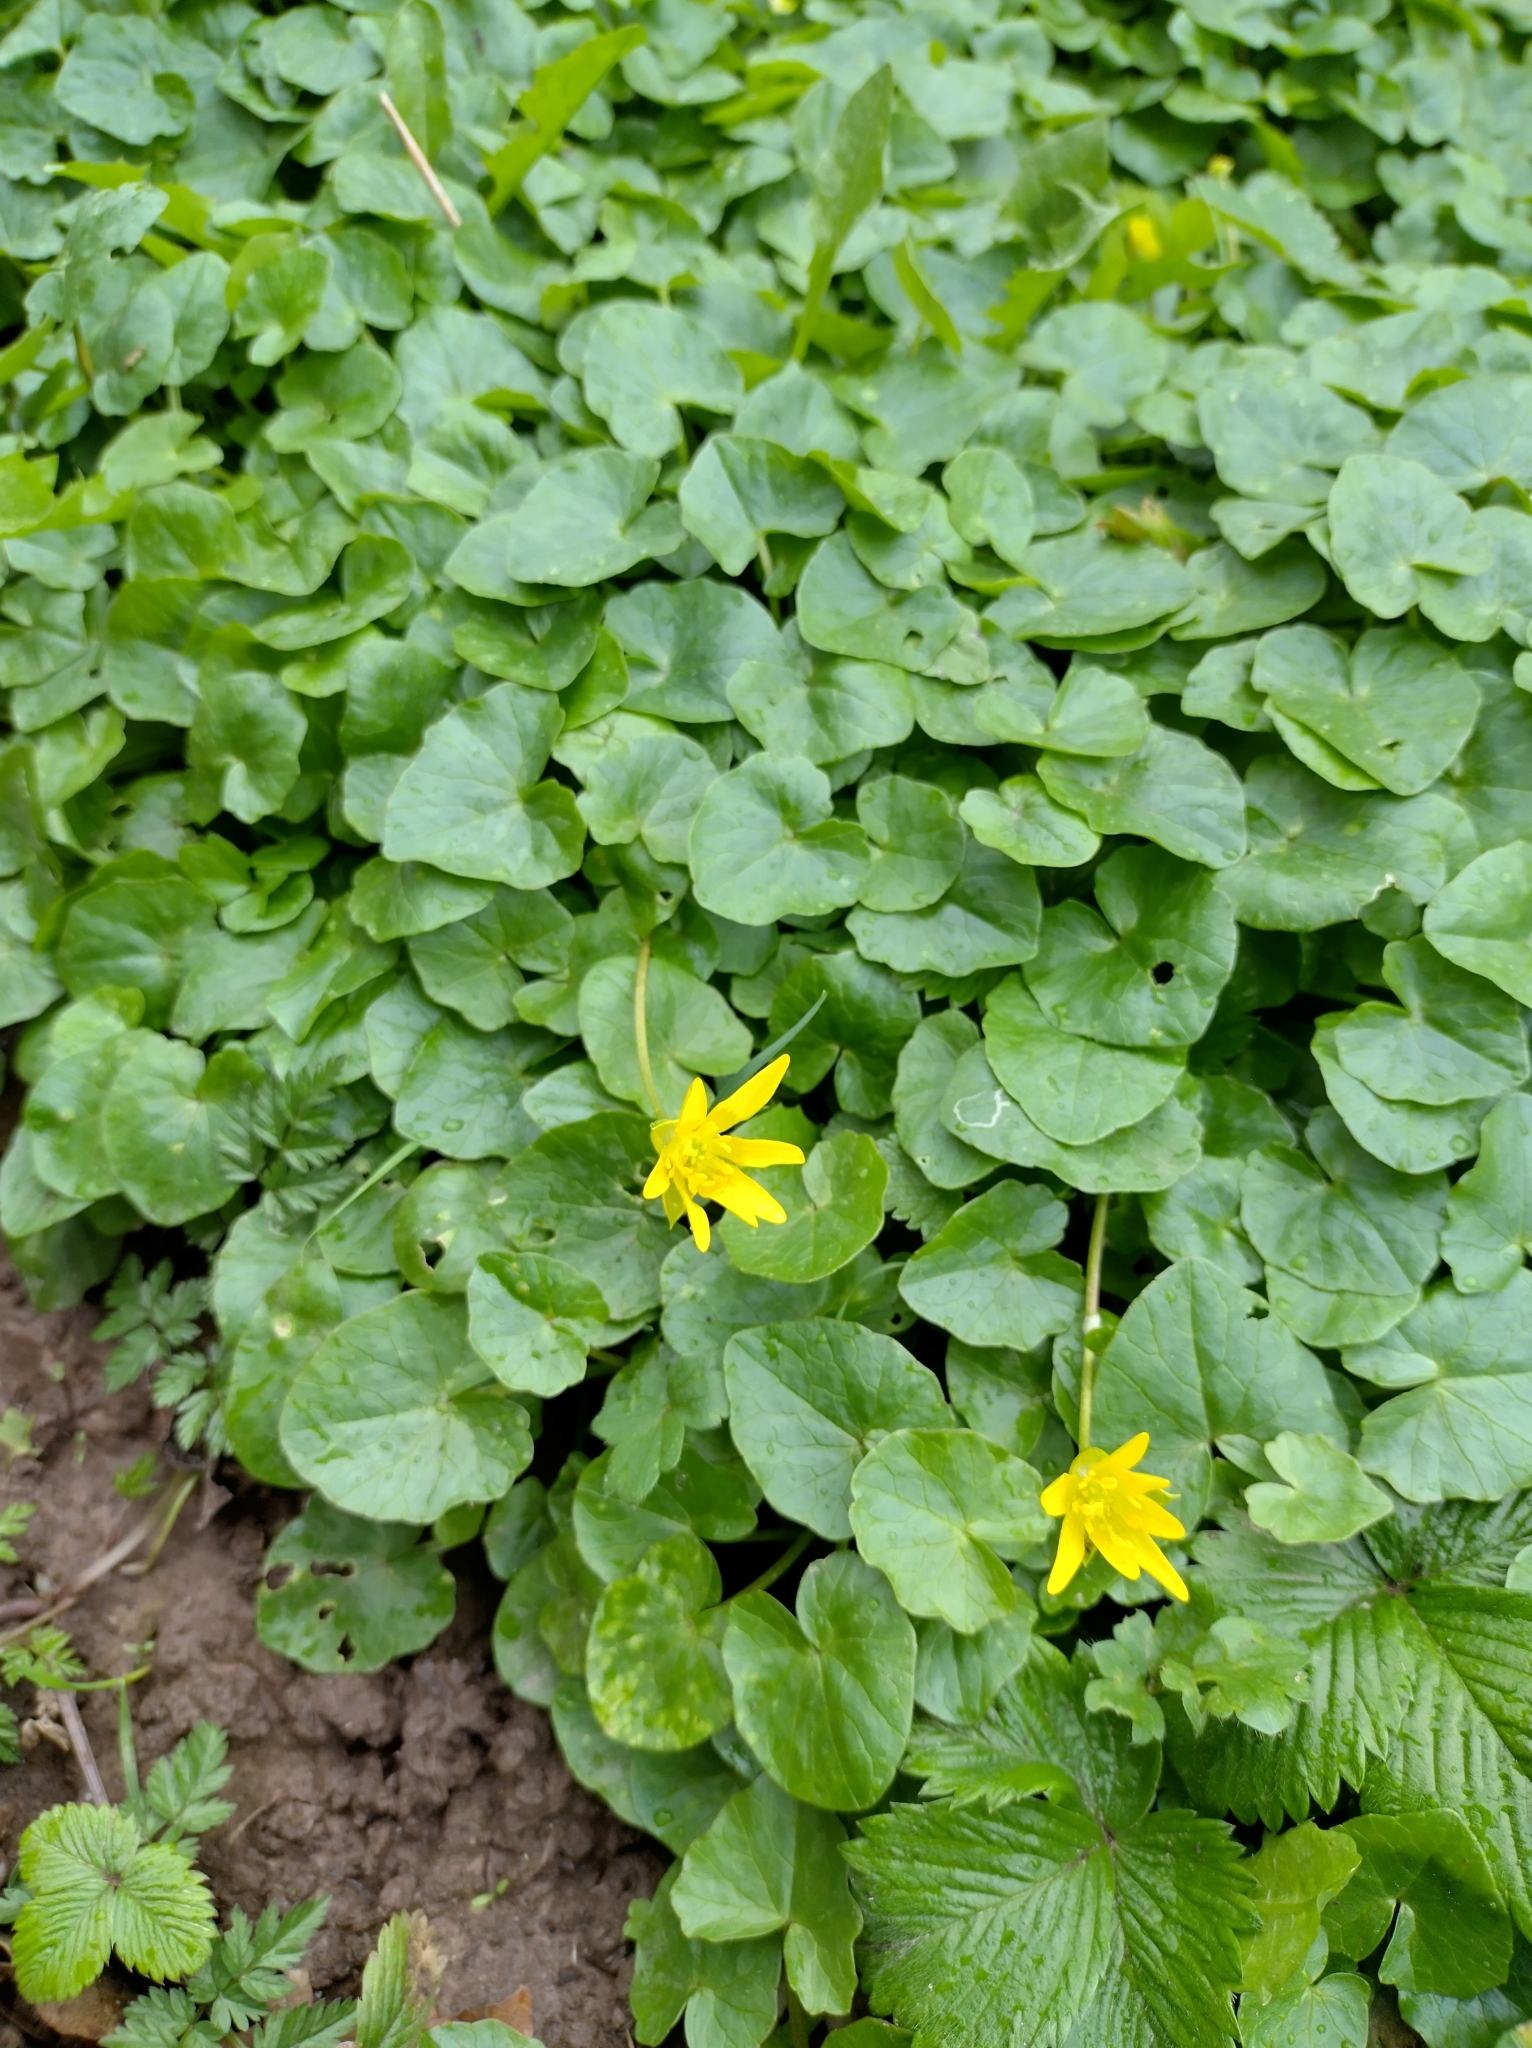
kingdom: Plantae
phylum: Tracheophyta
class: Magnoliopsida
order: Ranunculales
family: Ranunculaceae
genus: Ficaria
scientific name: Ficaria verna
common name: Lesser celandine
